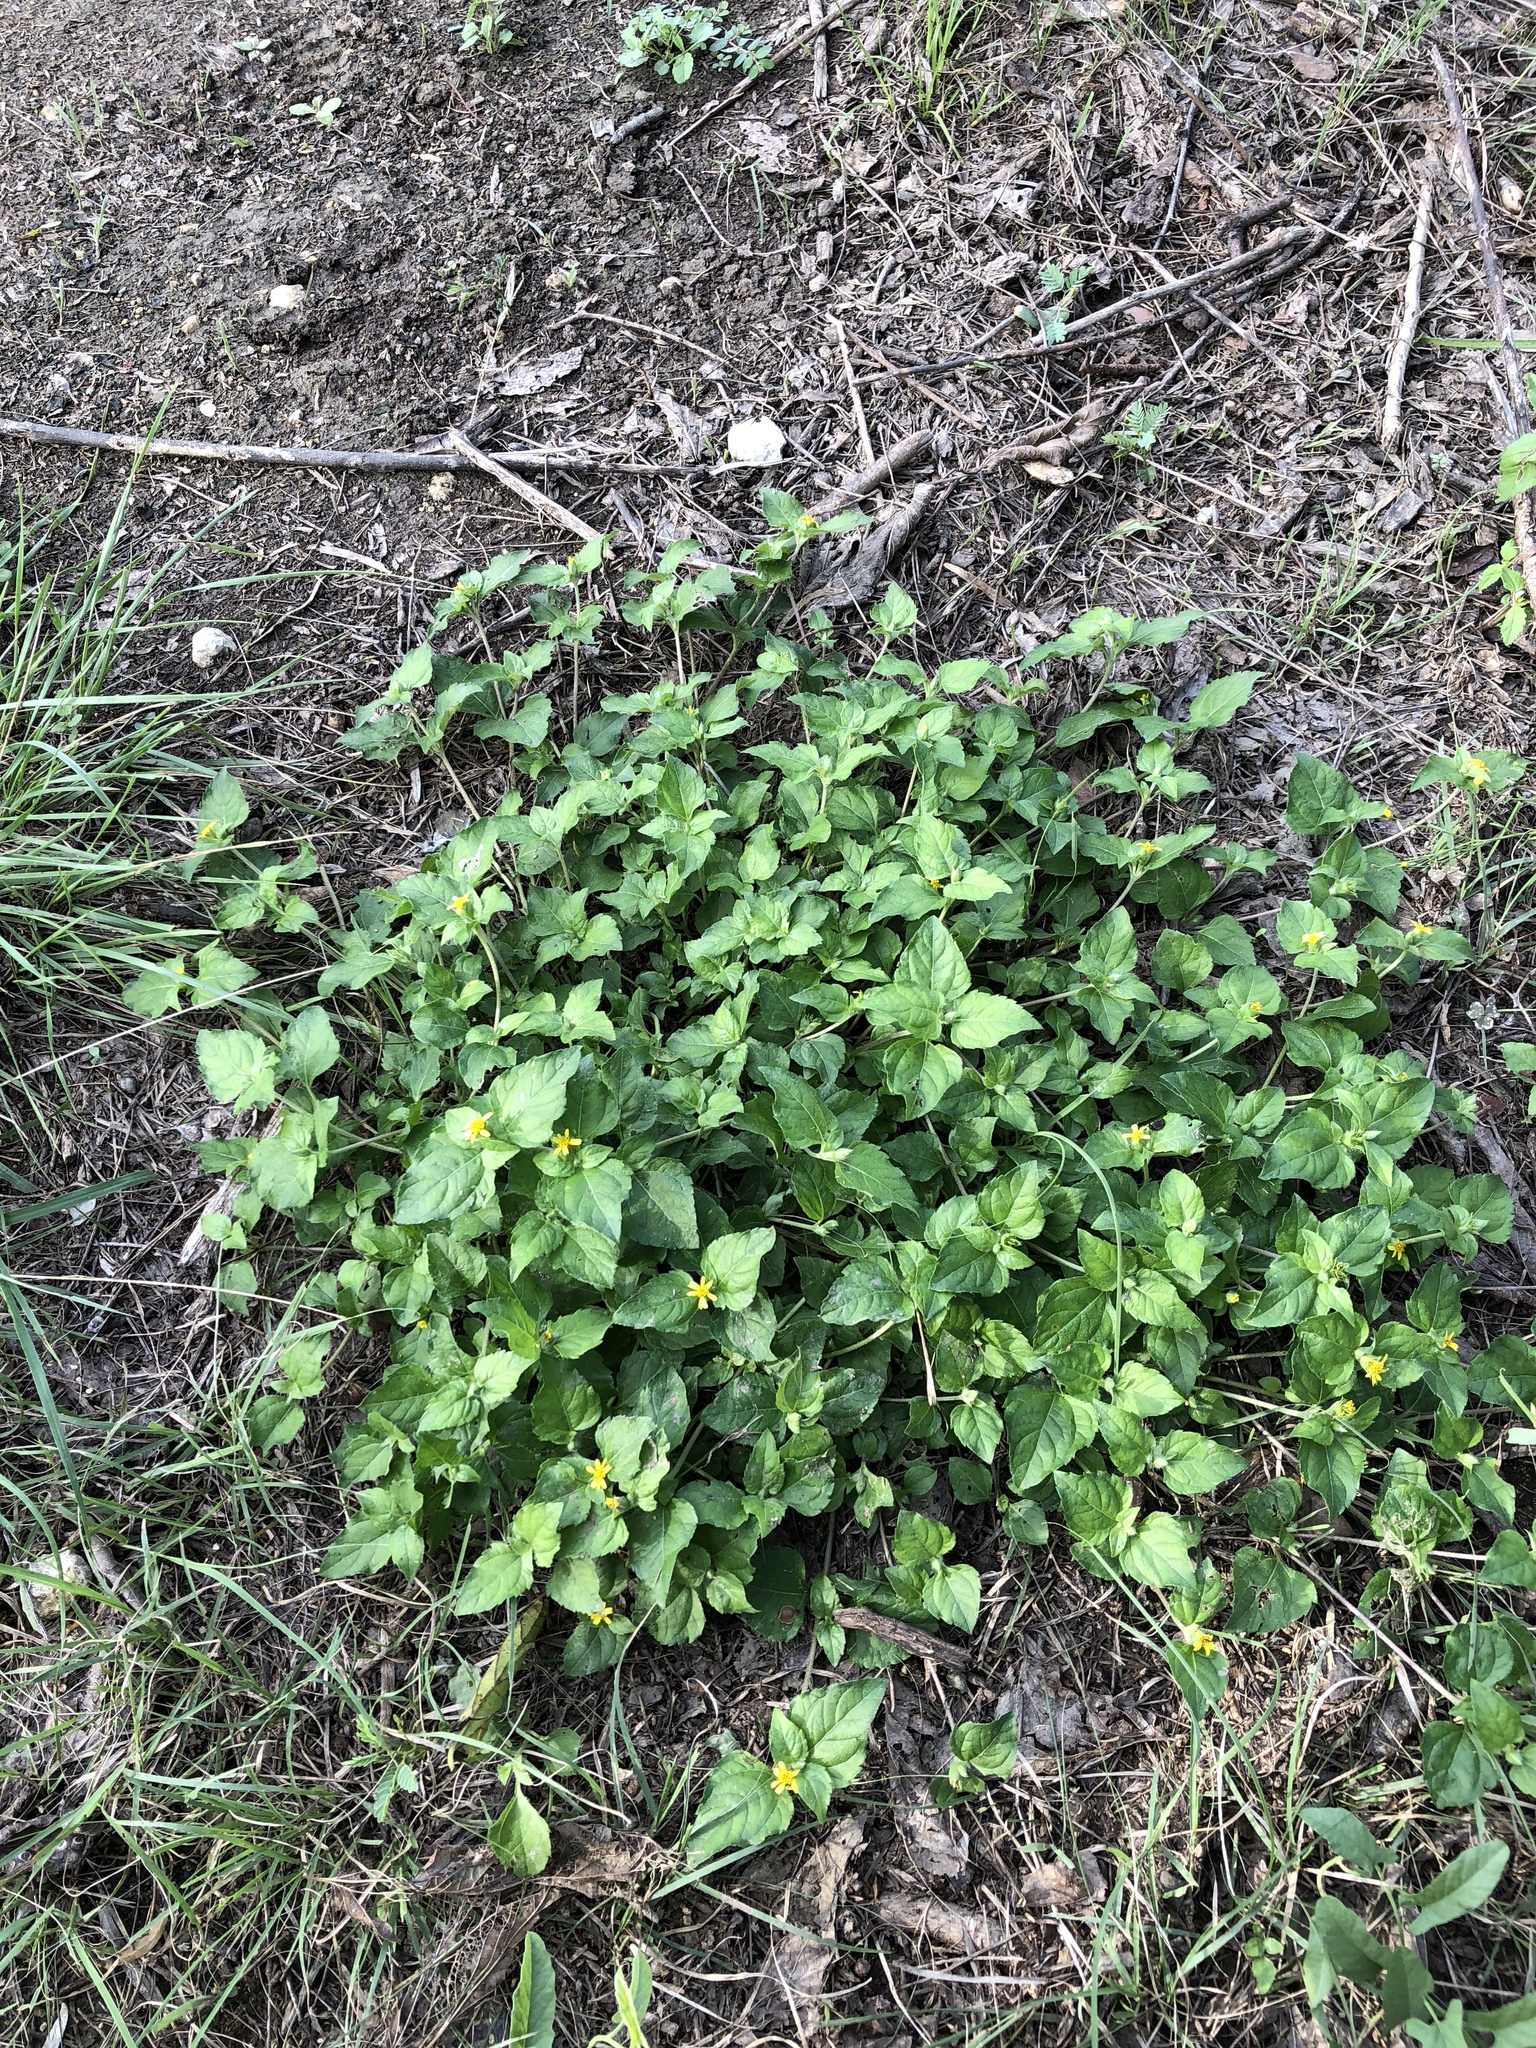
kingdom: Plantae
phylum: Tracheophyta
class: Magnoliopsida
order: Asterales
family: Asteraceae
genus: Calyptocarpus
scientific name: Calyptocarpus vialis
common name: Straggler daisy
